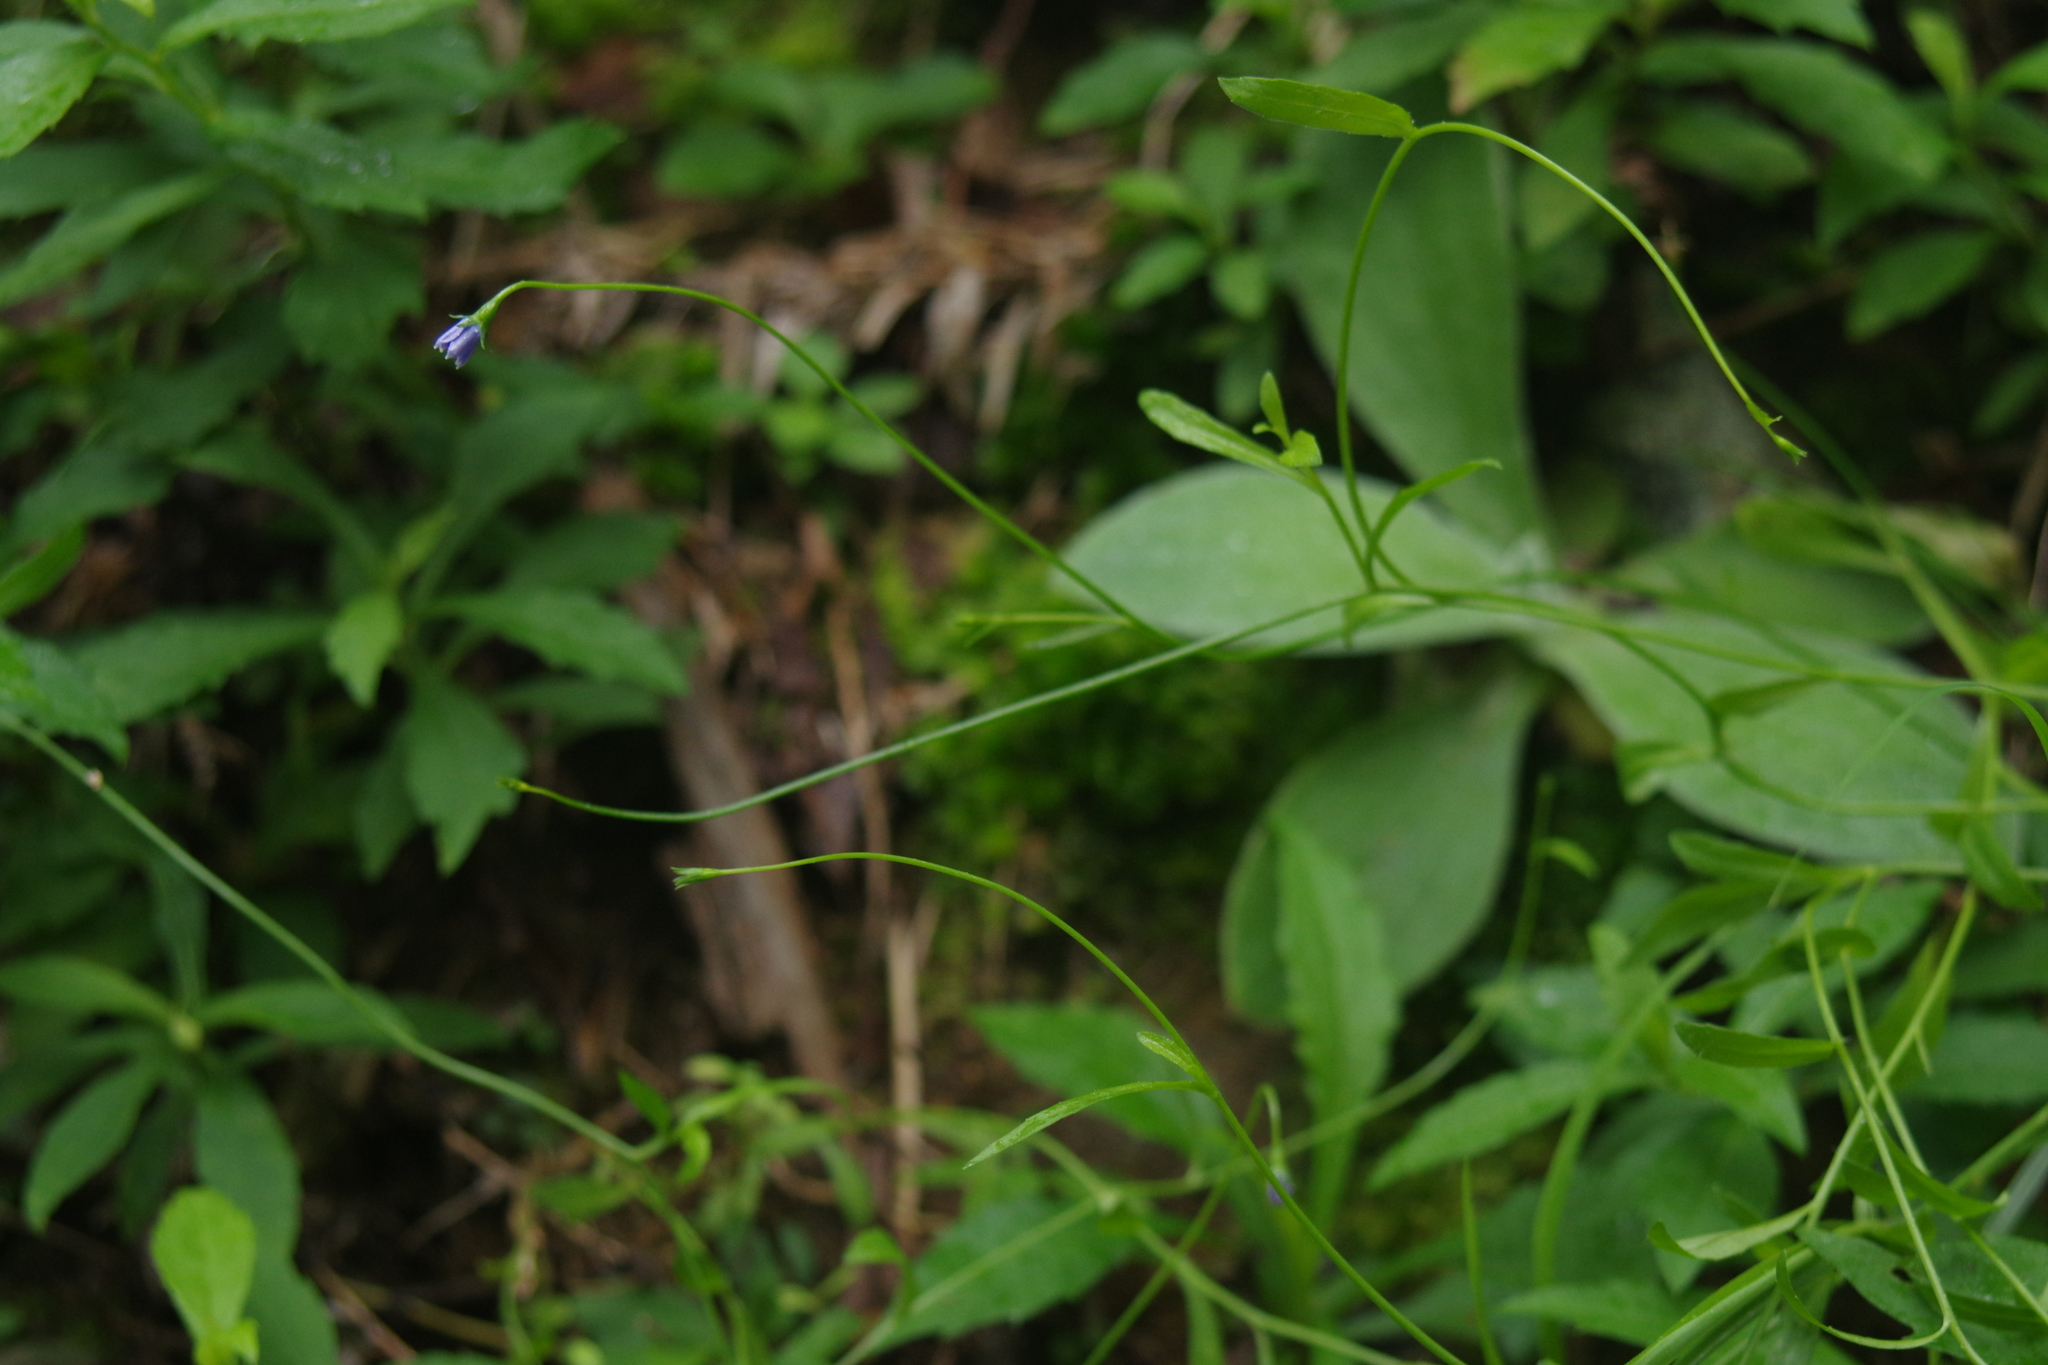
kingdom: Plantae
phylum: Tracheophyta
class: Magnoliopsida
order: Asterales
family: Campanulaceae
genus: Wahlenbergia
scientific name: Wahlenbergia marginata
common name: Southern rockbell
